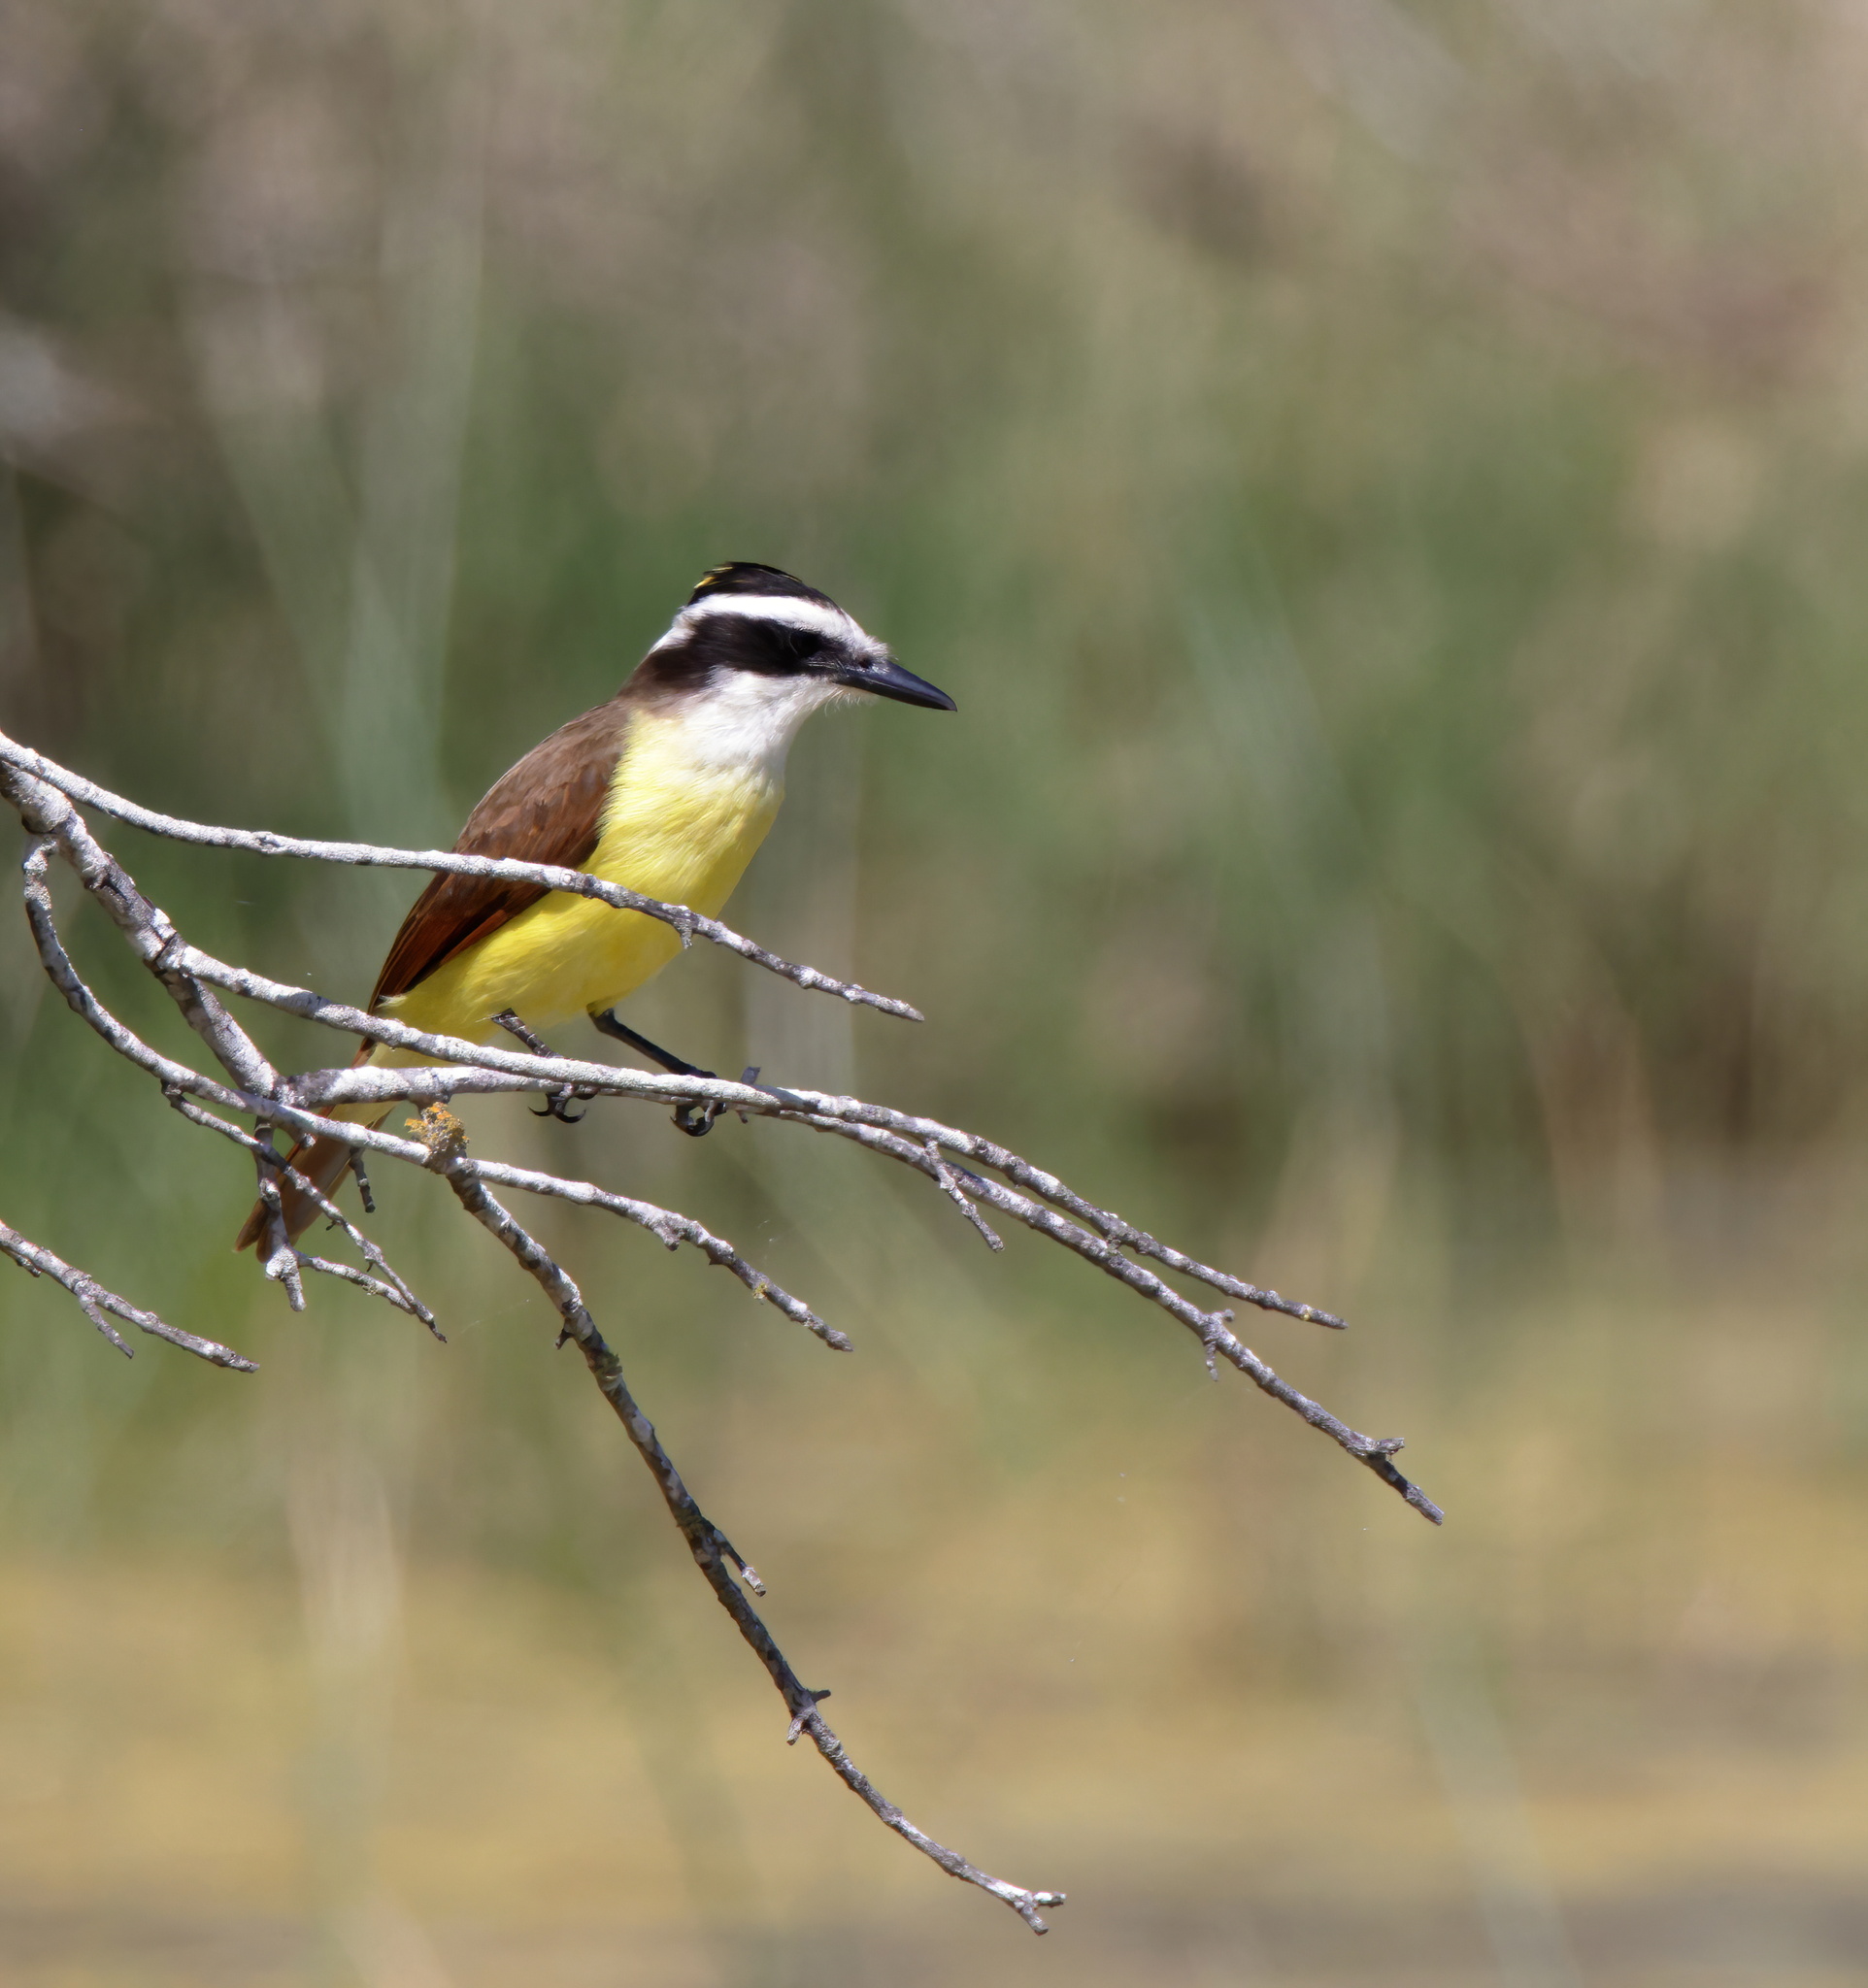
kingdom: Animalia
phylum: Chordata
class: Aves
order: Passeriformes
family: Tyrannidae
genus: Pitangus
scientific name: Pitangus sulphuratus
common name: Great kiskadee
